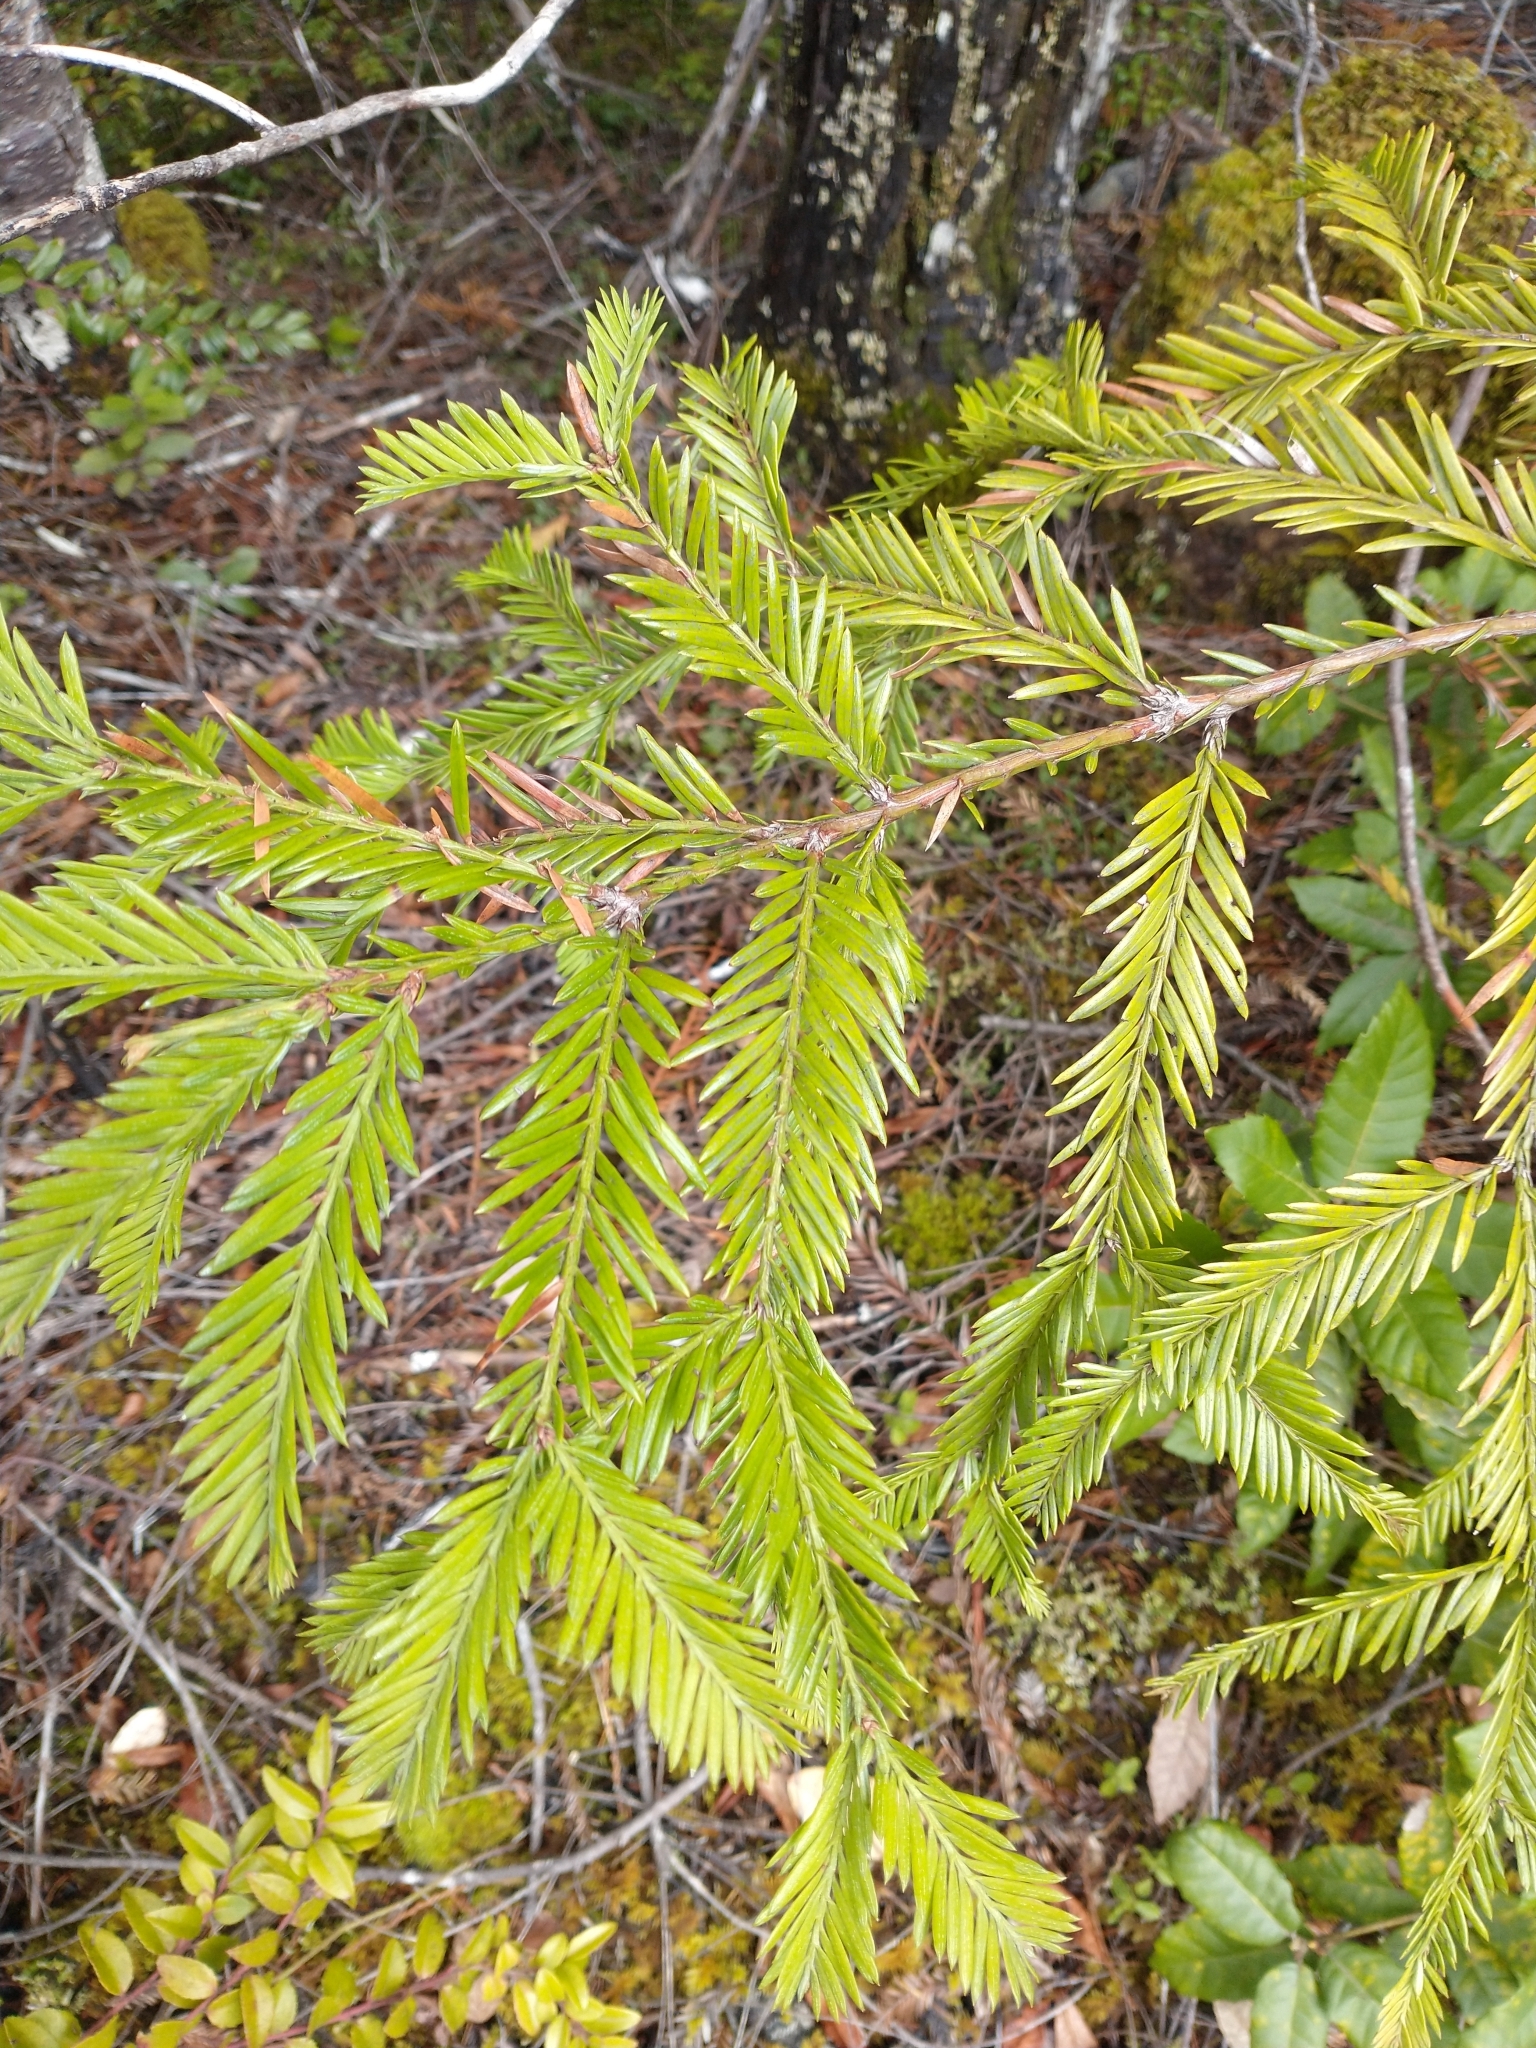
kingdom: Plantae
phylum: Tracheophyta
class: Pinopsida
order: Pinales
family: Cupressaceae
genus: Sequoia
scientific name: Sequoia sempervirens
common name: Coast redwood
